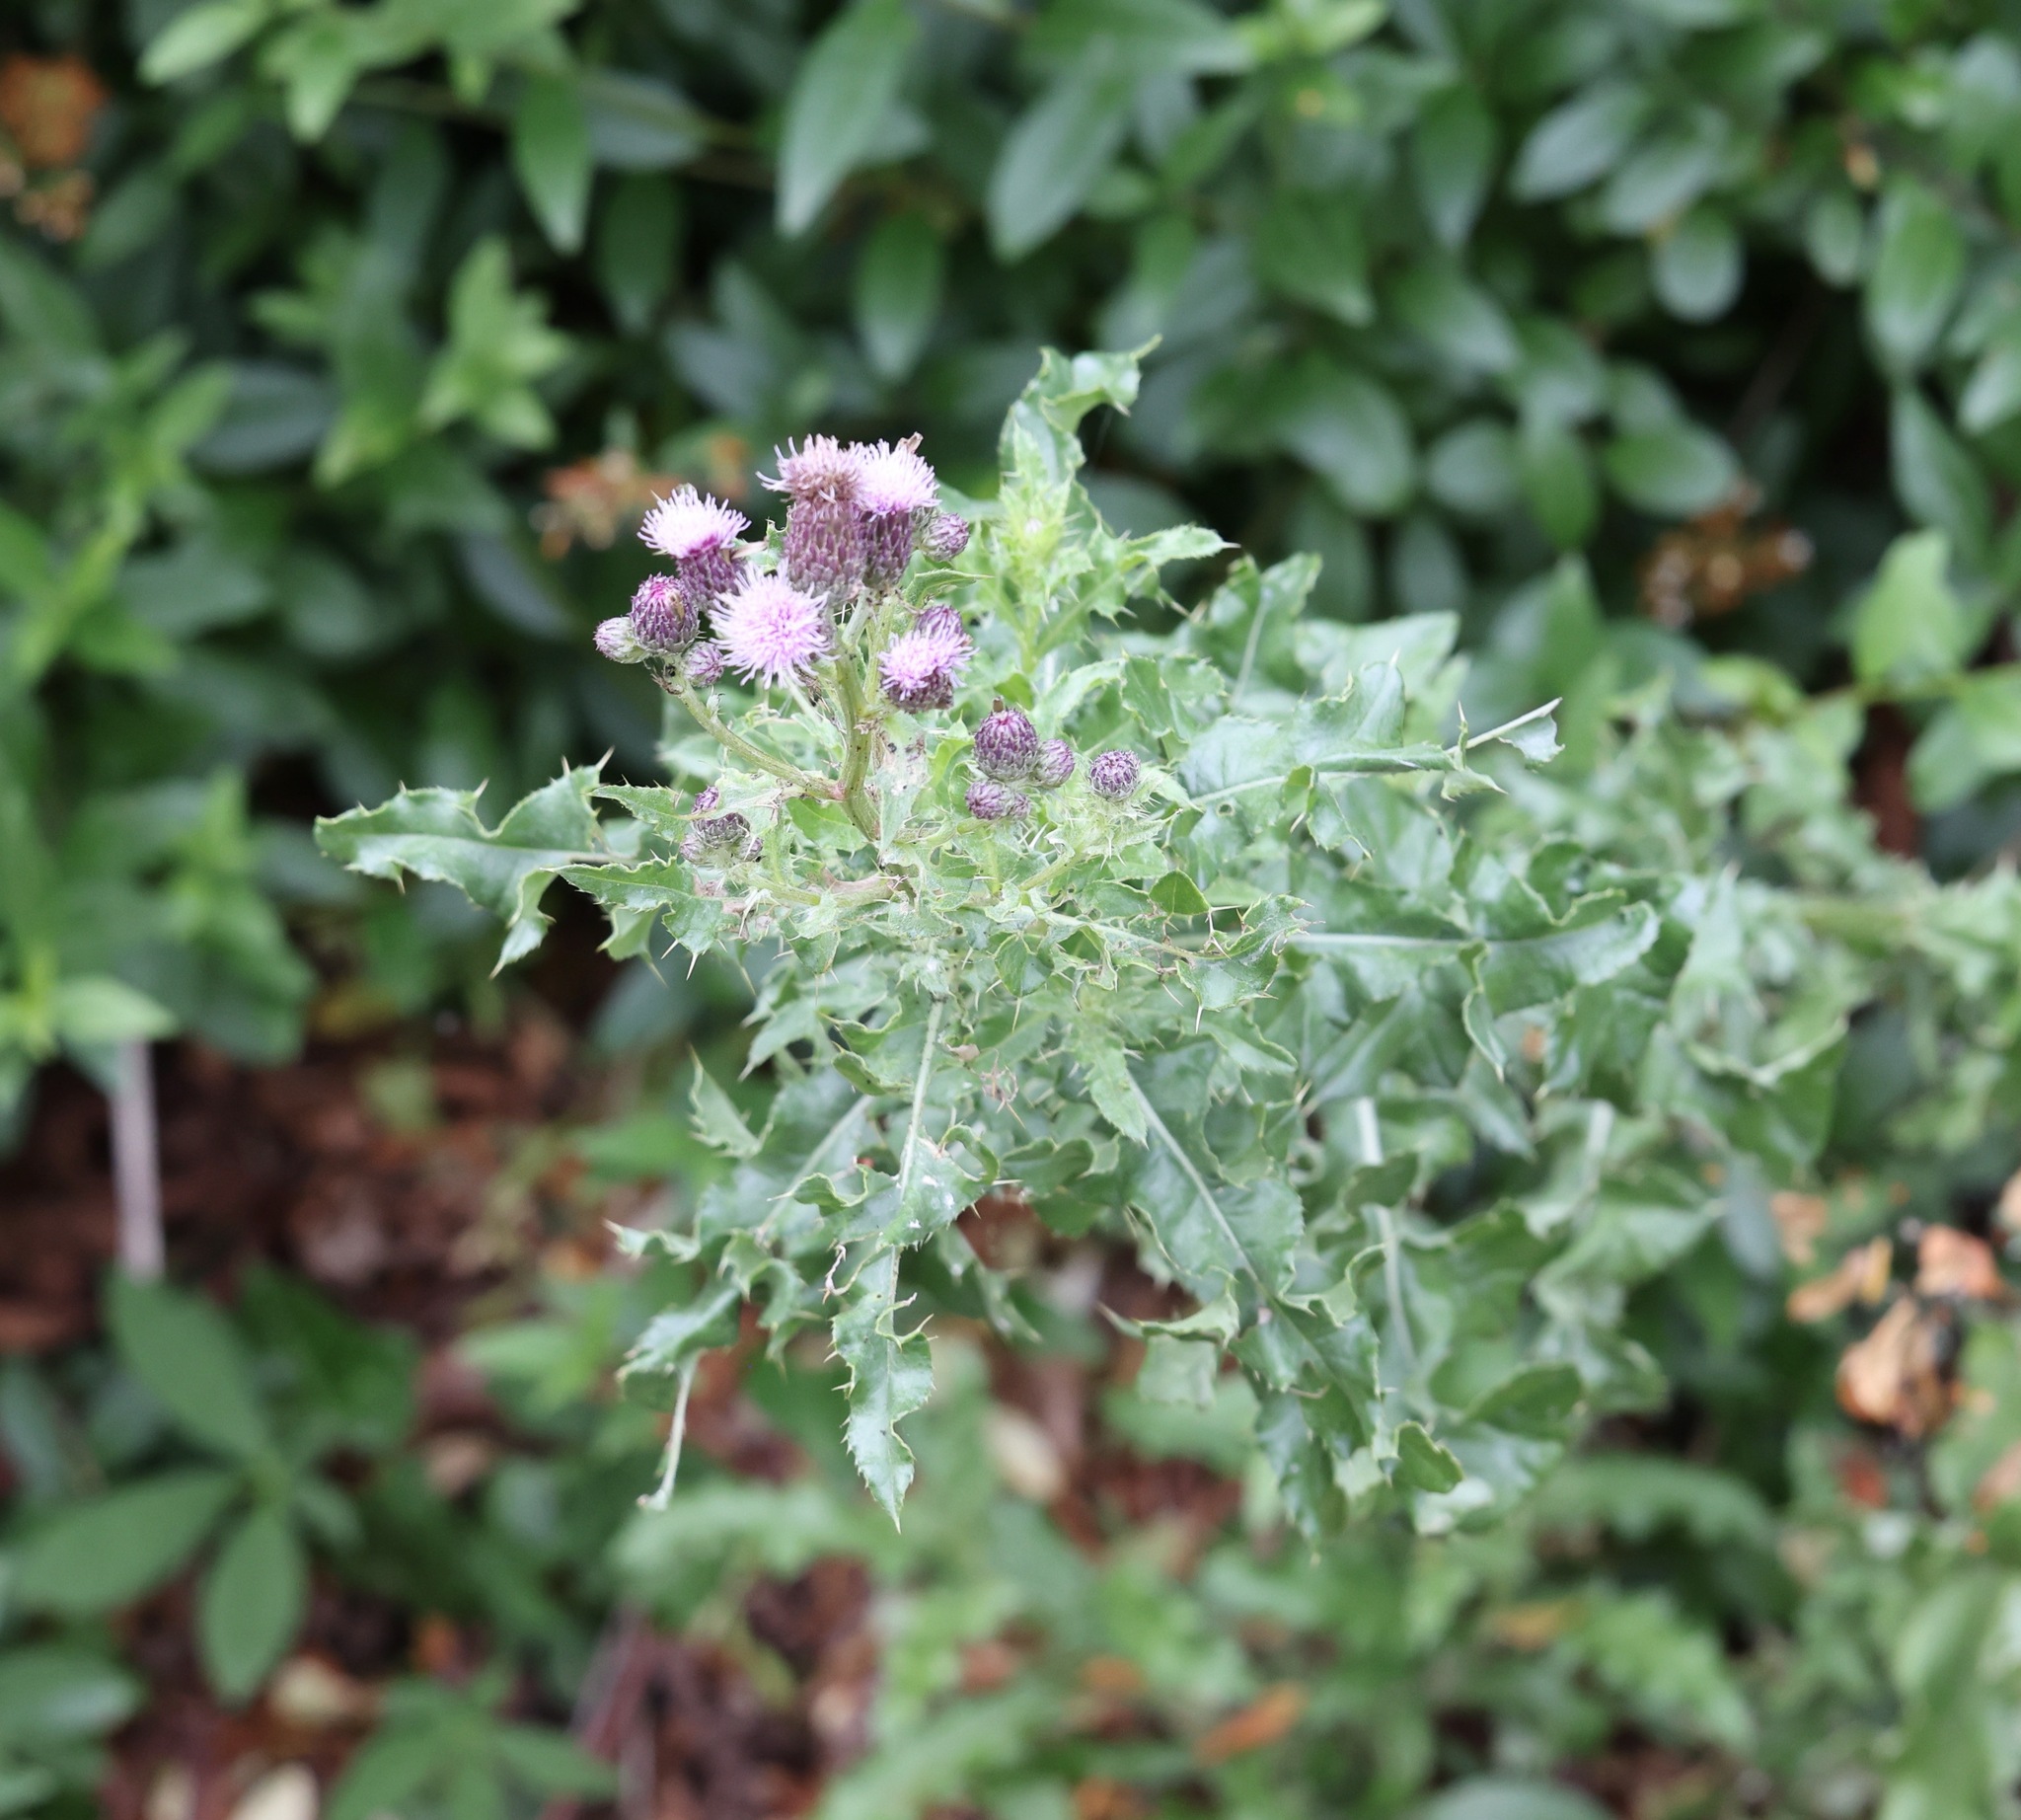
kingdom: Plantae
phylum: Tracheophyta
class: Magnoliopsida
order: Asterales
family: Asteraceae
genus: Cirsium
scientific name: Cirsium arvense
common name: Creeping thistle
